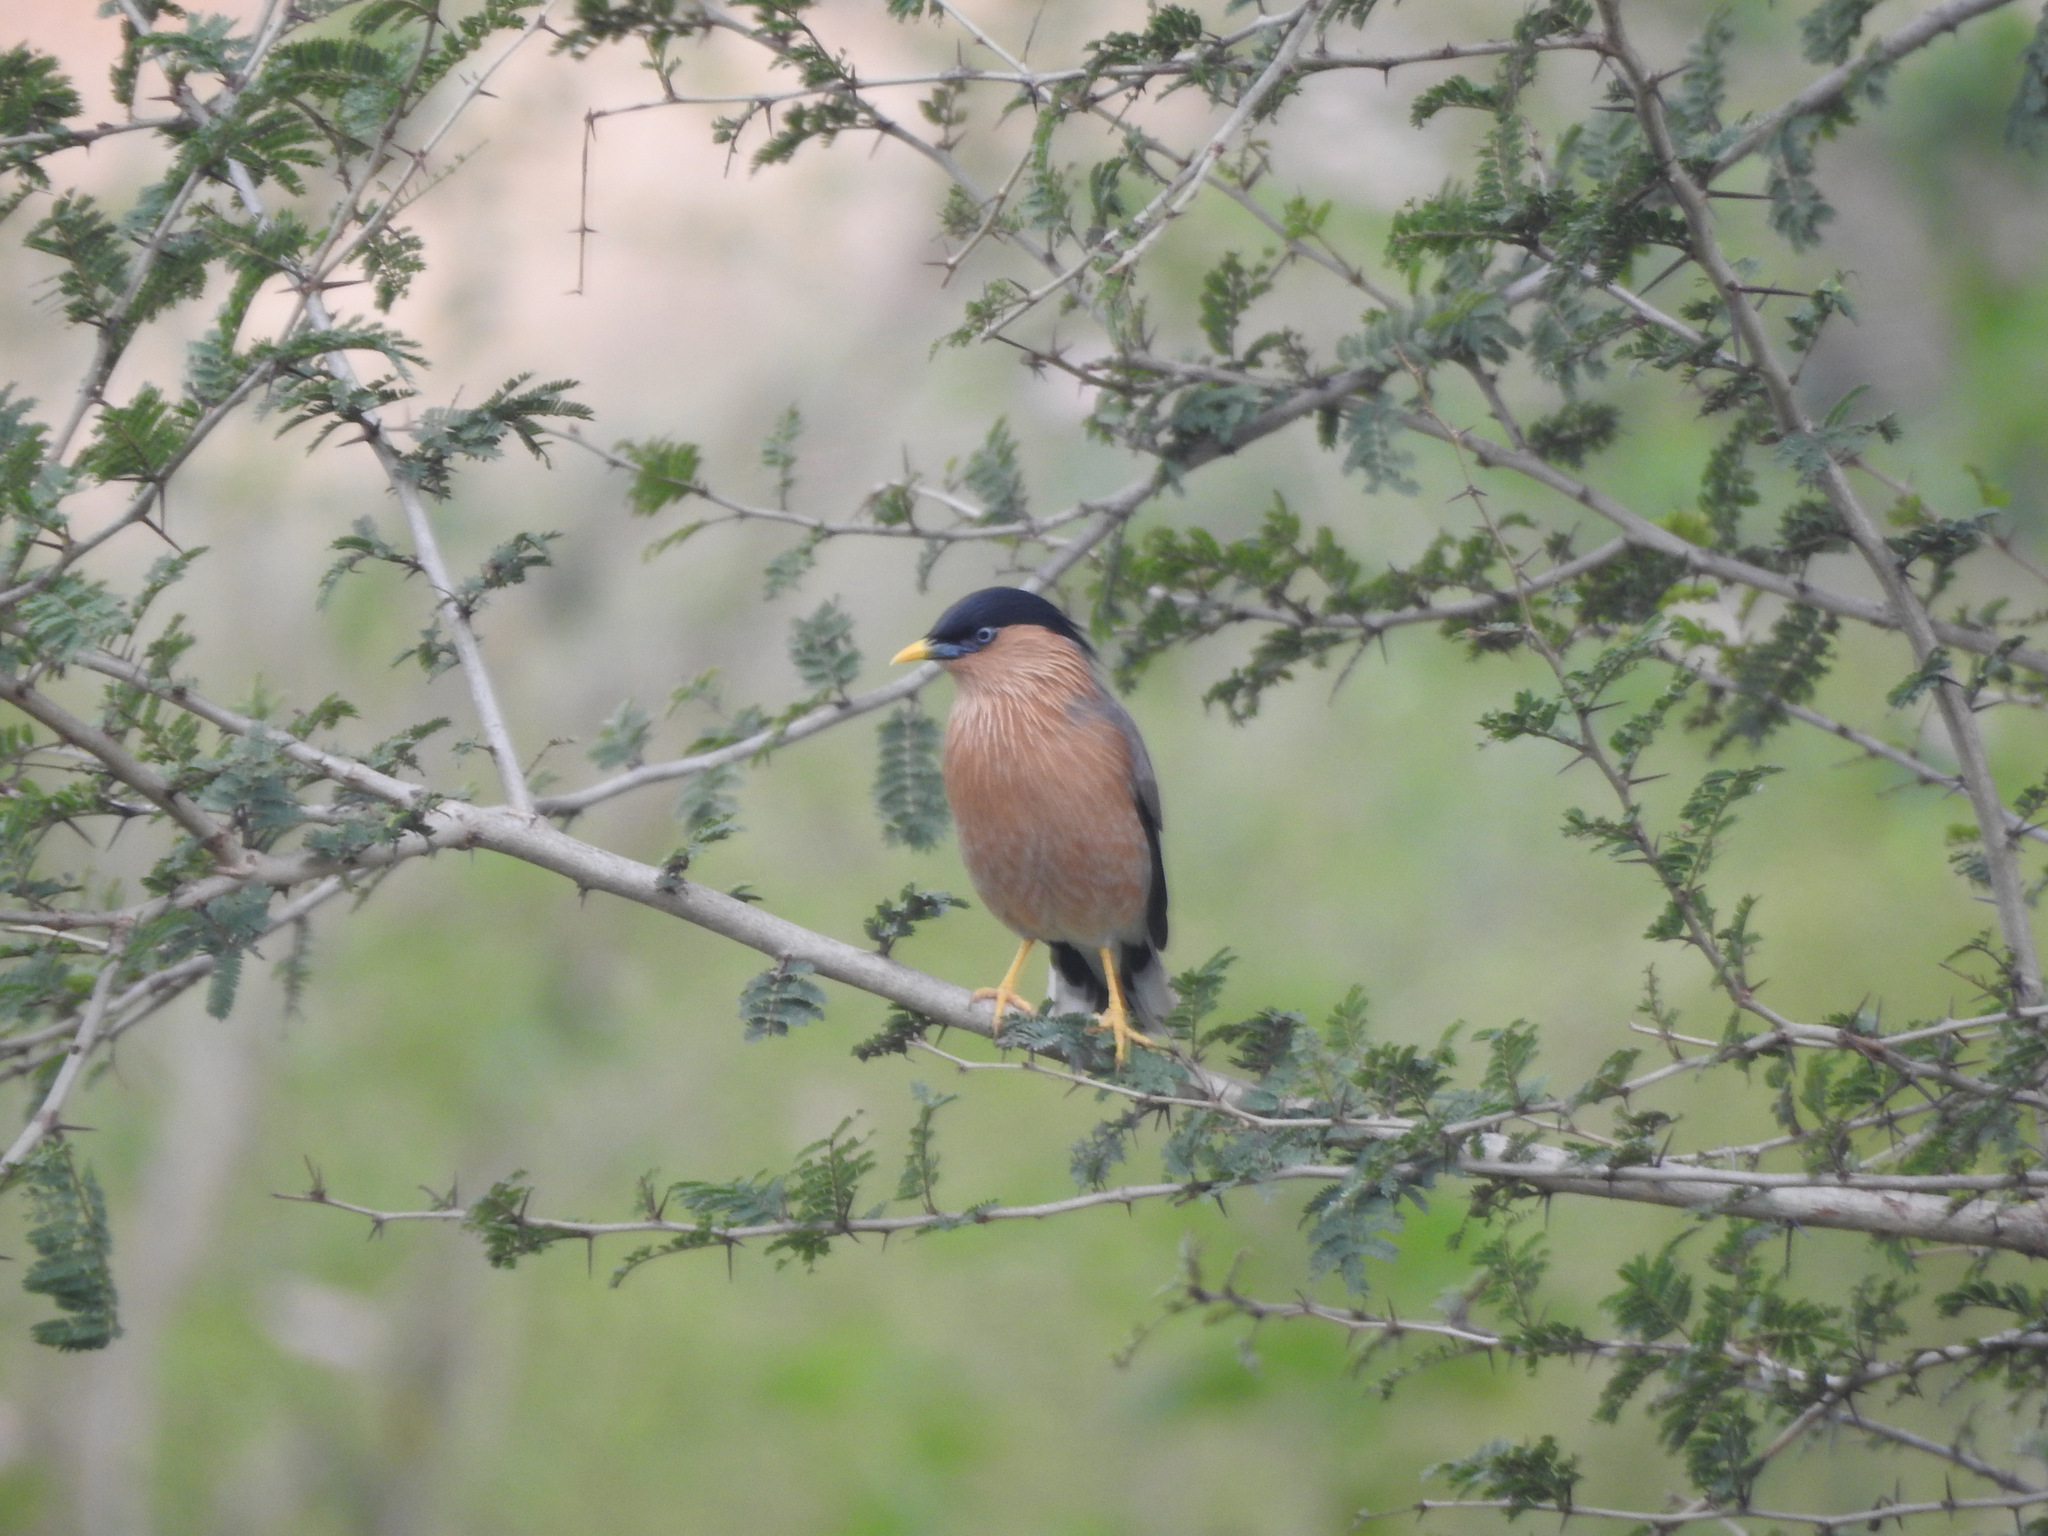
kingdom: Animalia
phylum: Chordata
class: Aves
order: Passeriformes
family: Sturnidae
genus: Sturnia
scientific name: Sturnia pagodarum
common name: Brahminy starling
